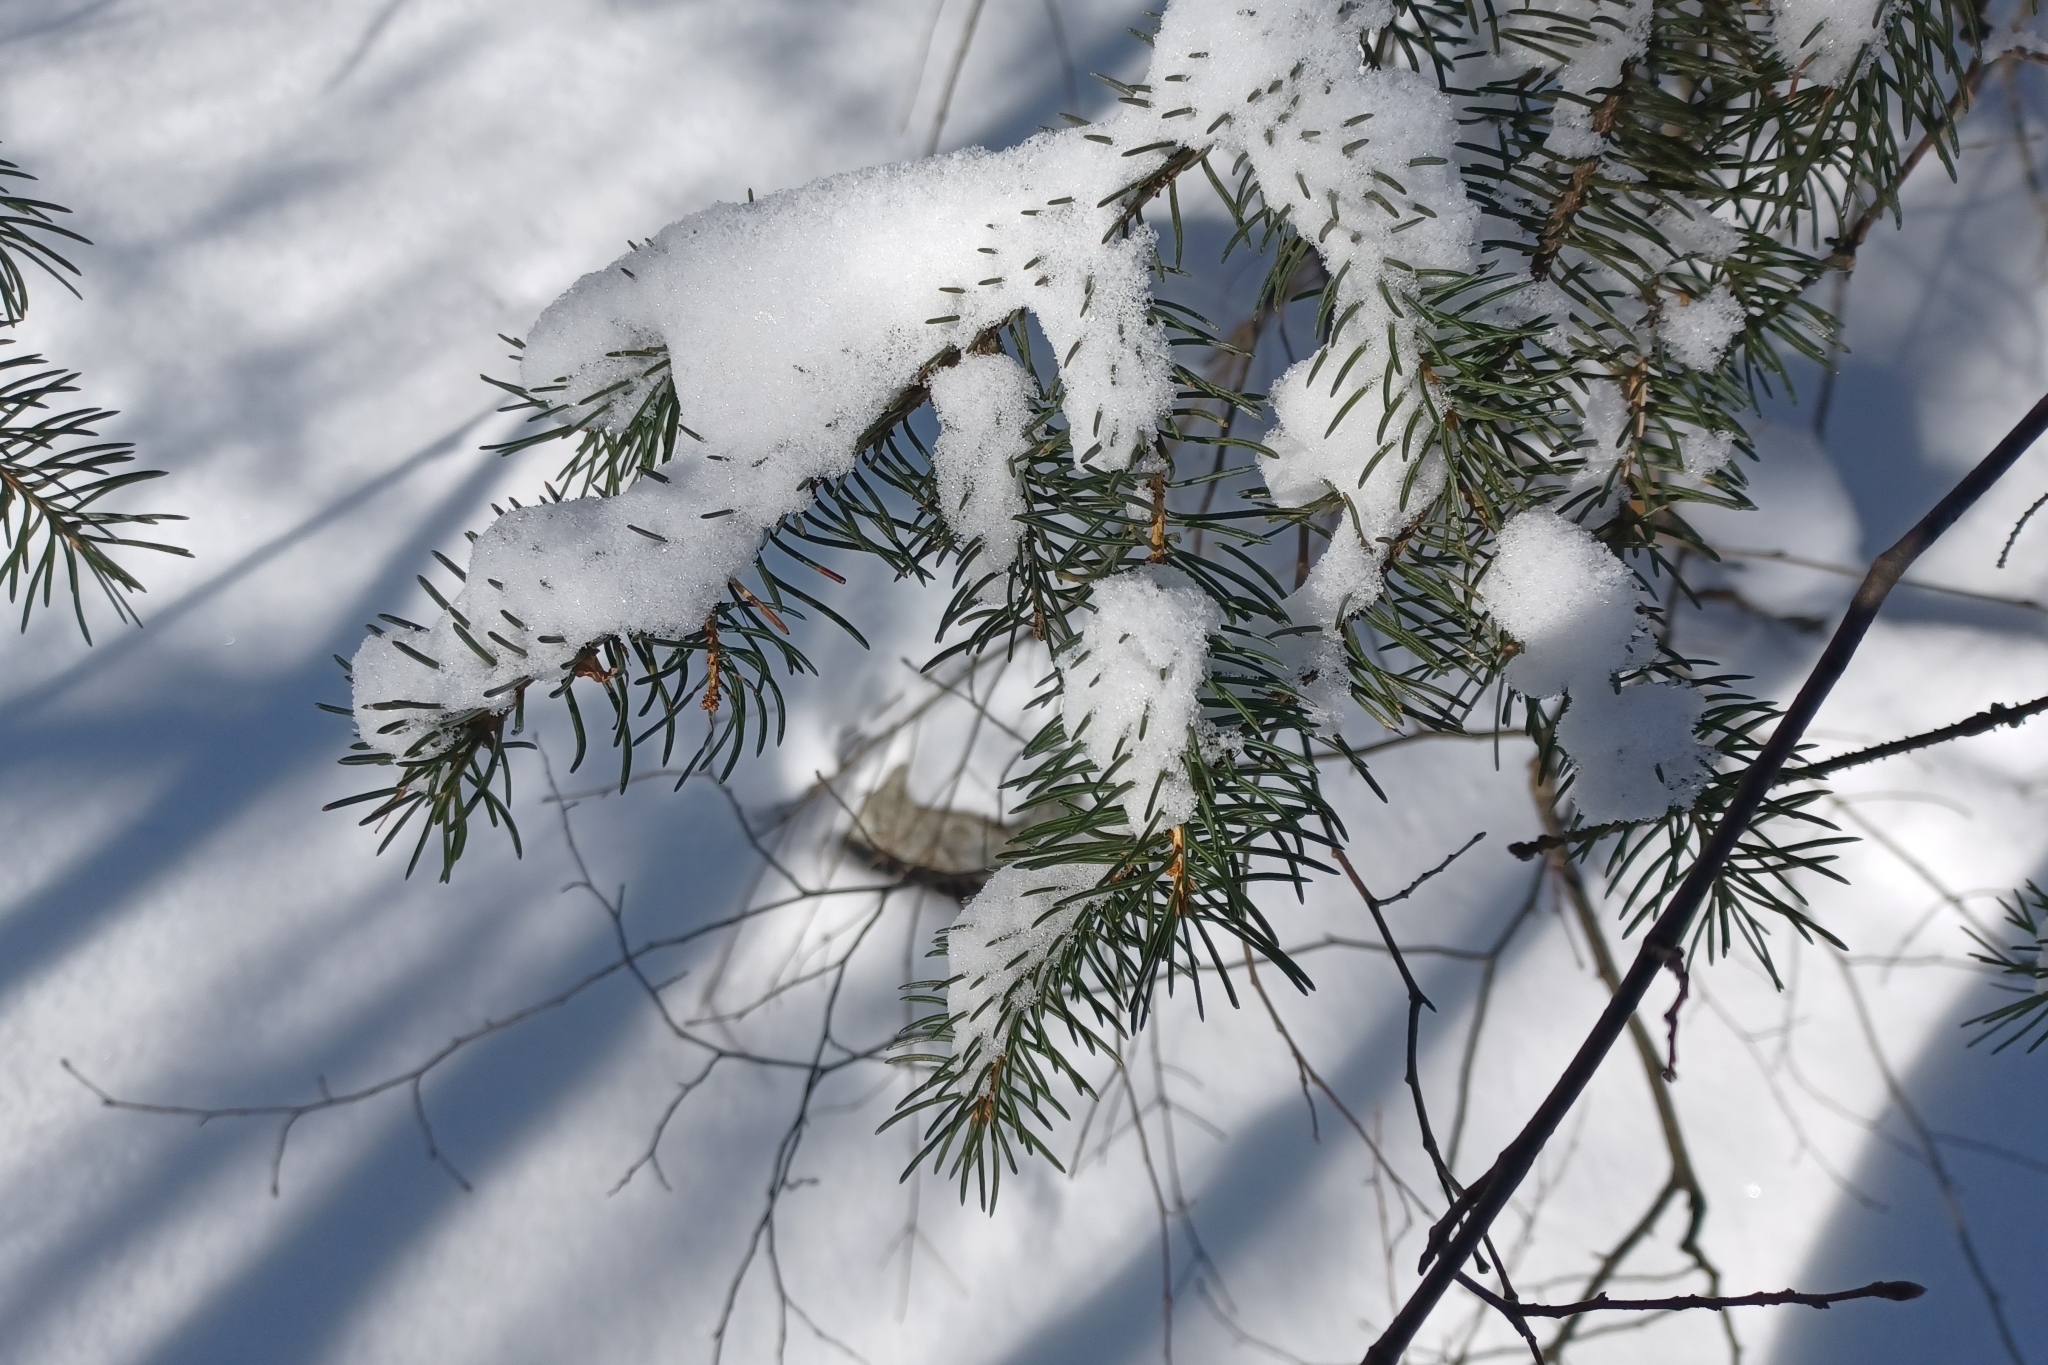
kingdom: Plantae
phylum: Tracheophyta
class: Pinopsida
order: Pinales
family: Pinaceae
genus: Picea
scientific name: Picea glauca
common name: White spruce
